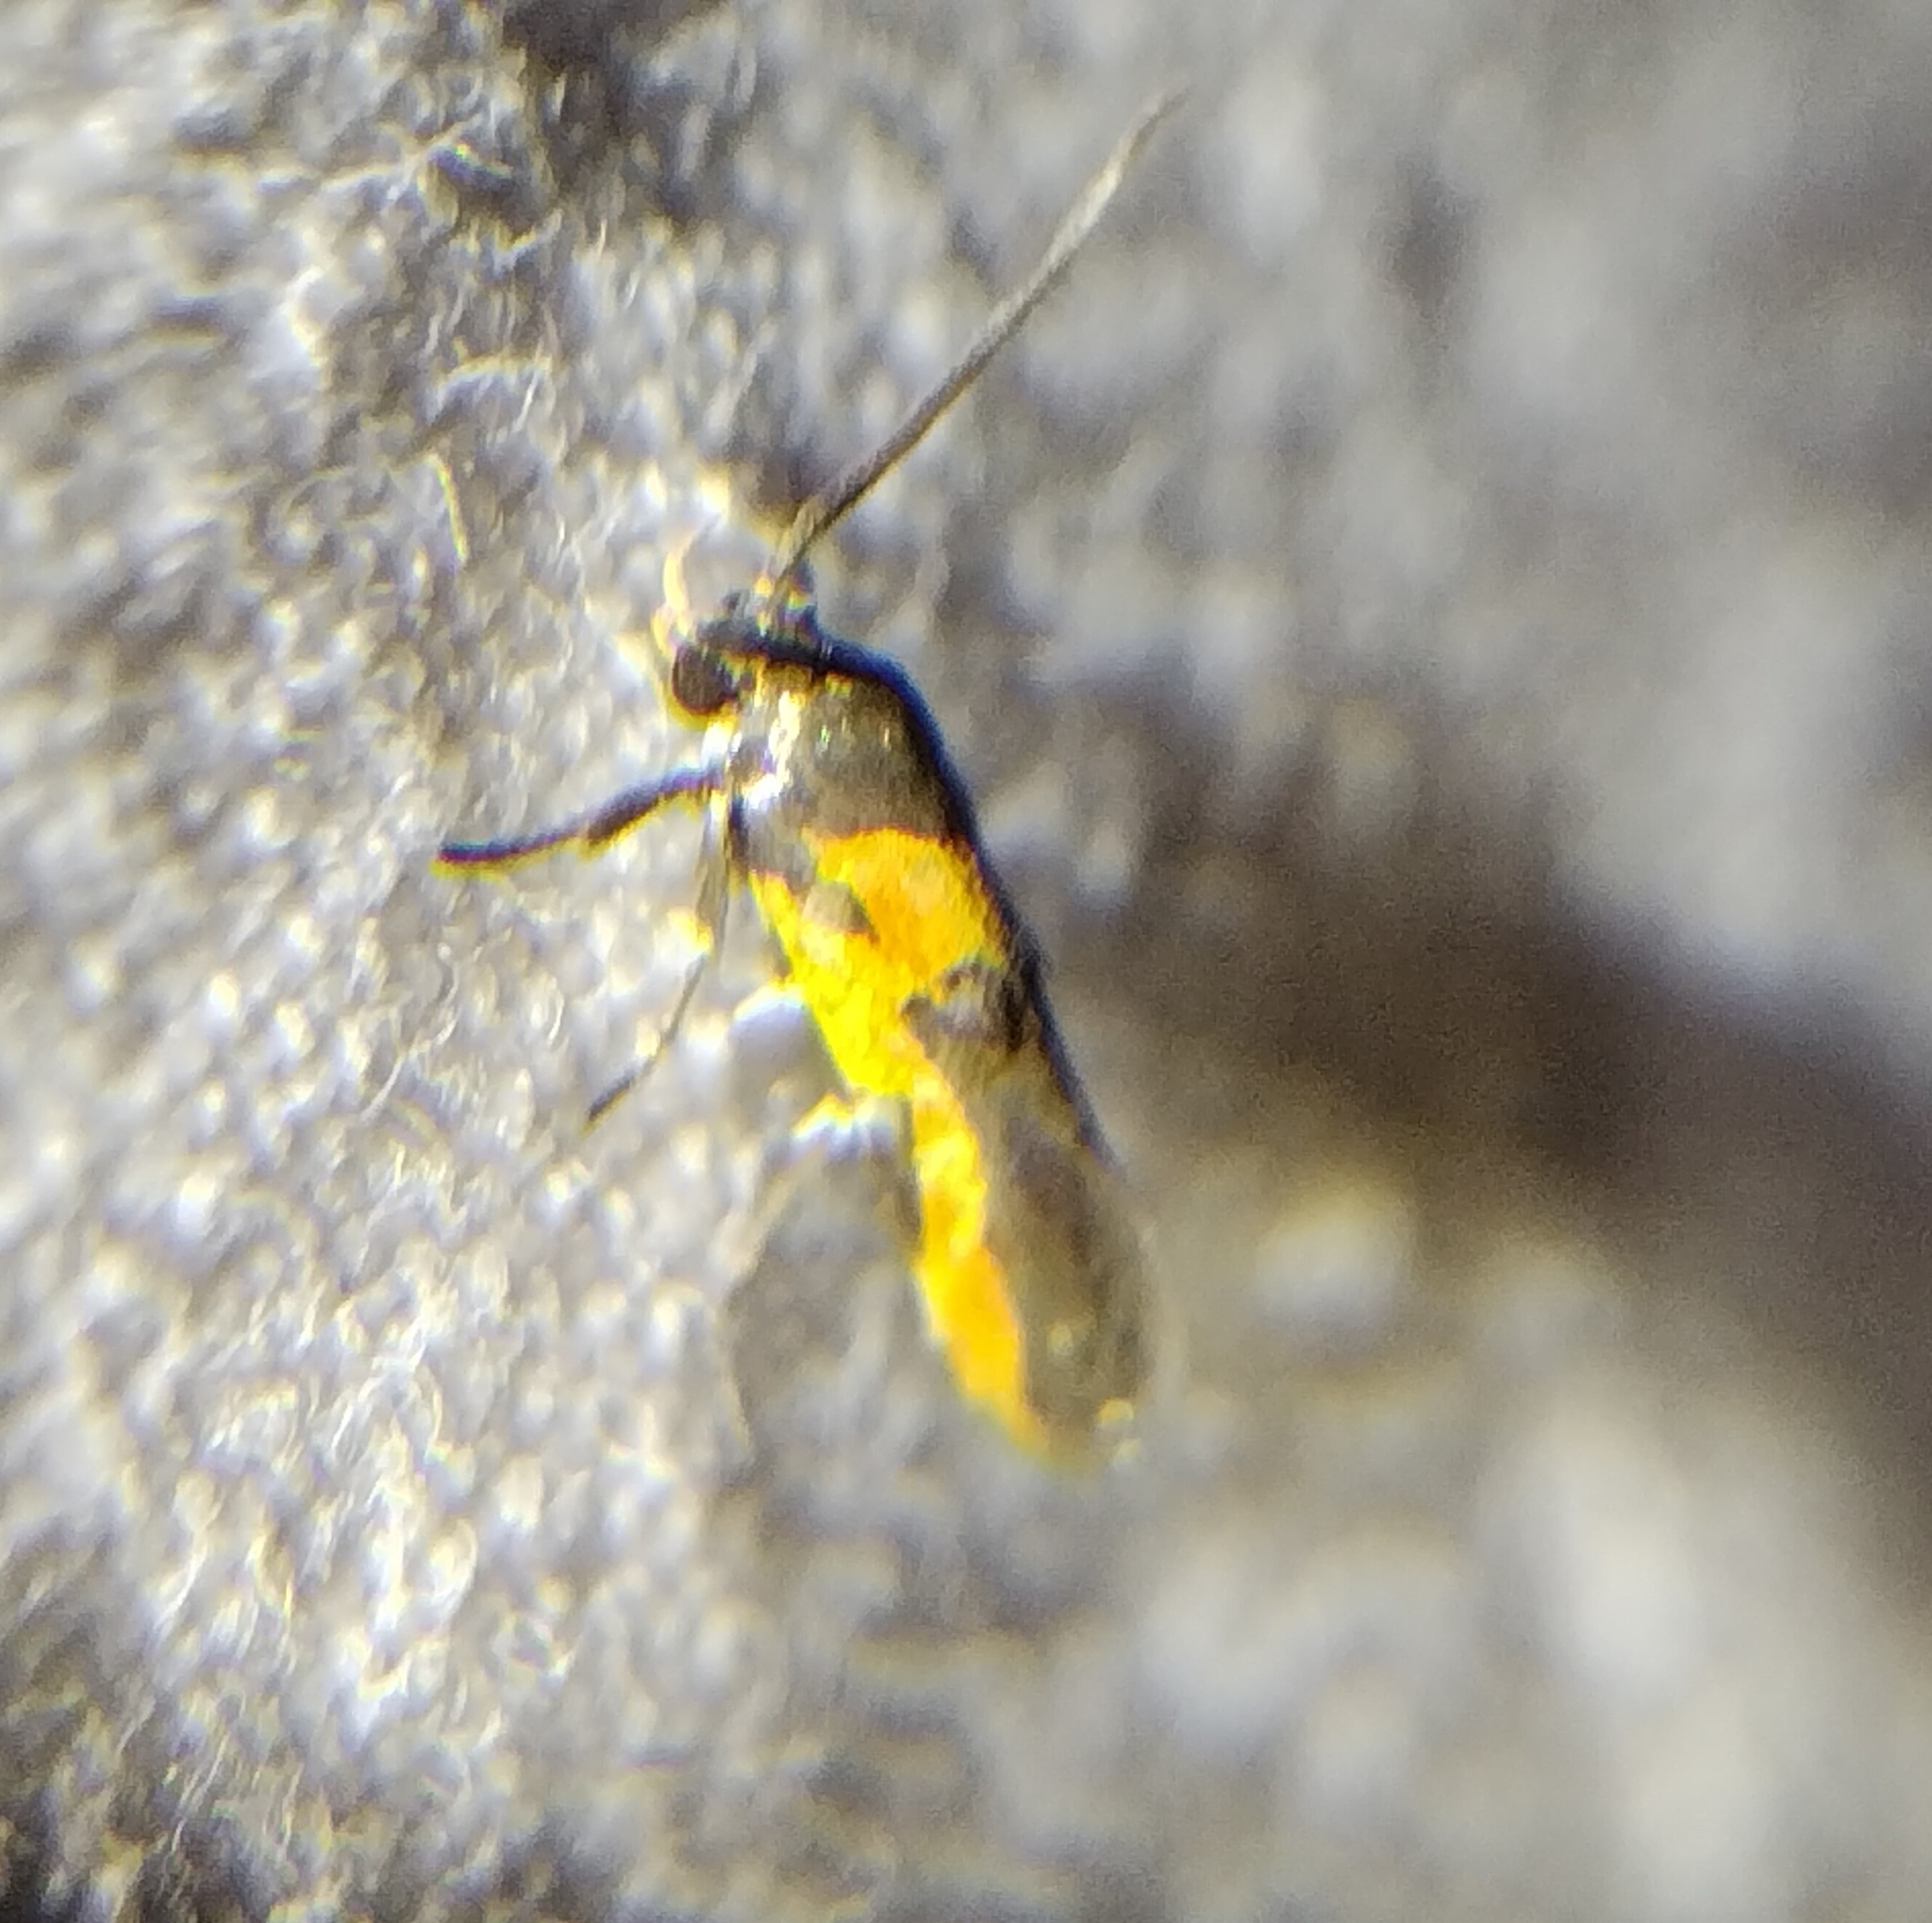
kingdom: Animalia
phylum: Arthropoda
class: Insecta
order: Lepidoptera
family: Cosmopterigidae
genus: Euclemensia
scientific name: Euclemensia bassettella
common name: Kermes scale moth
